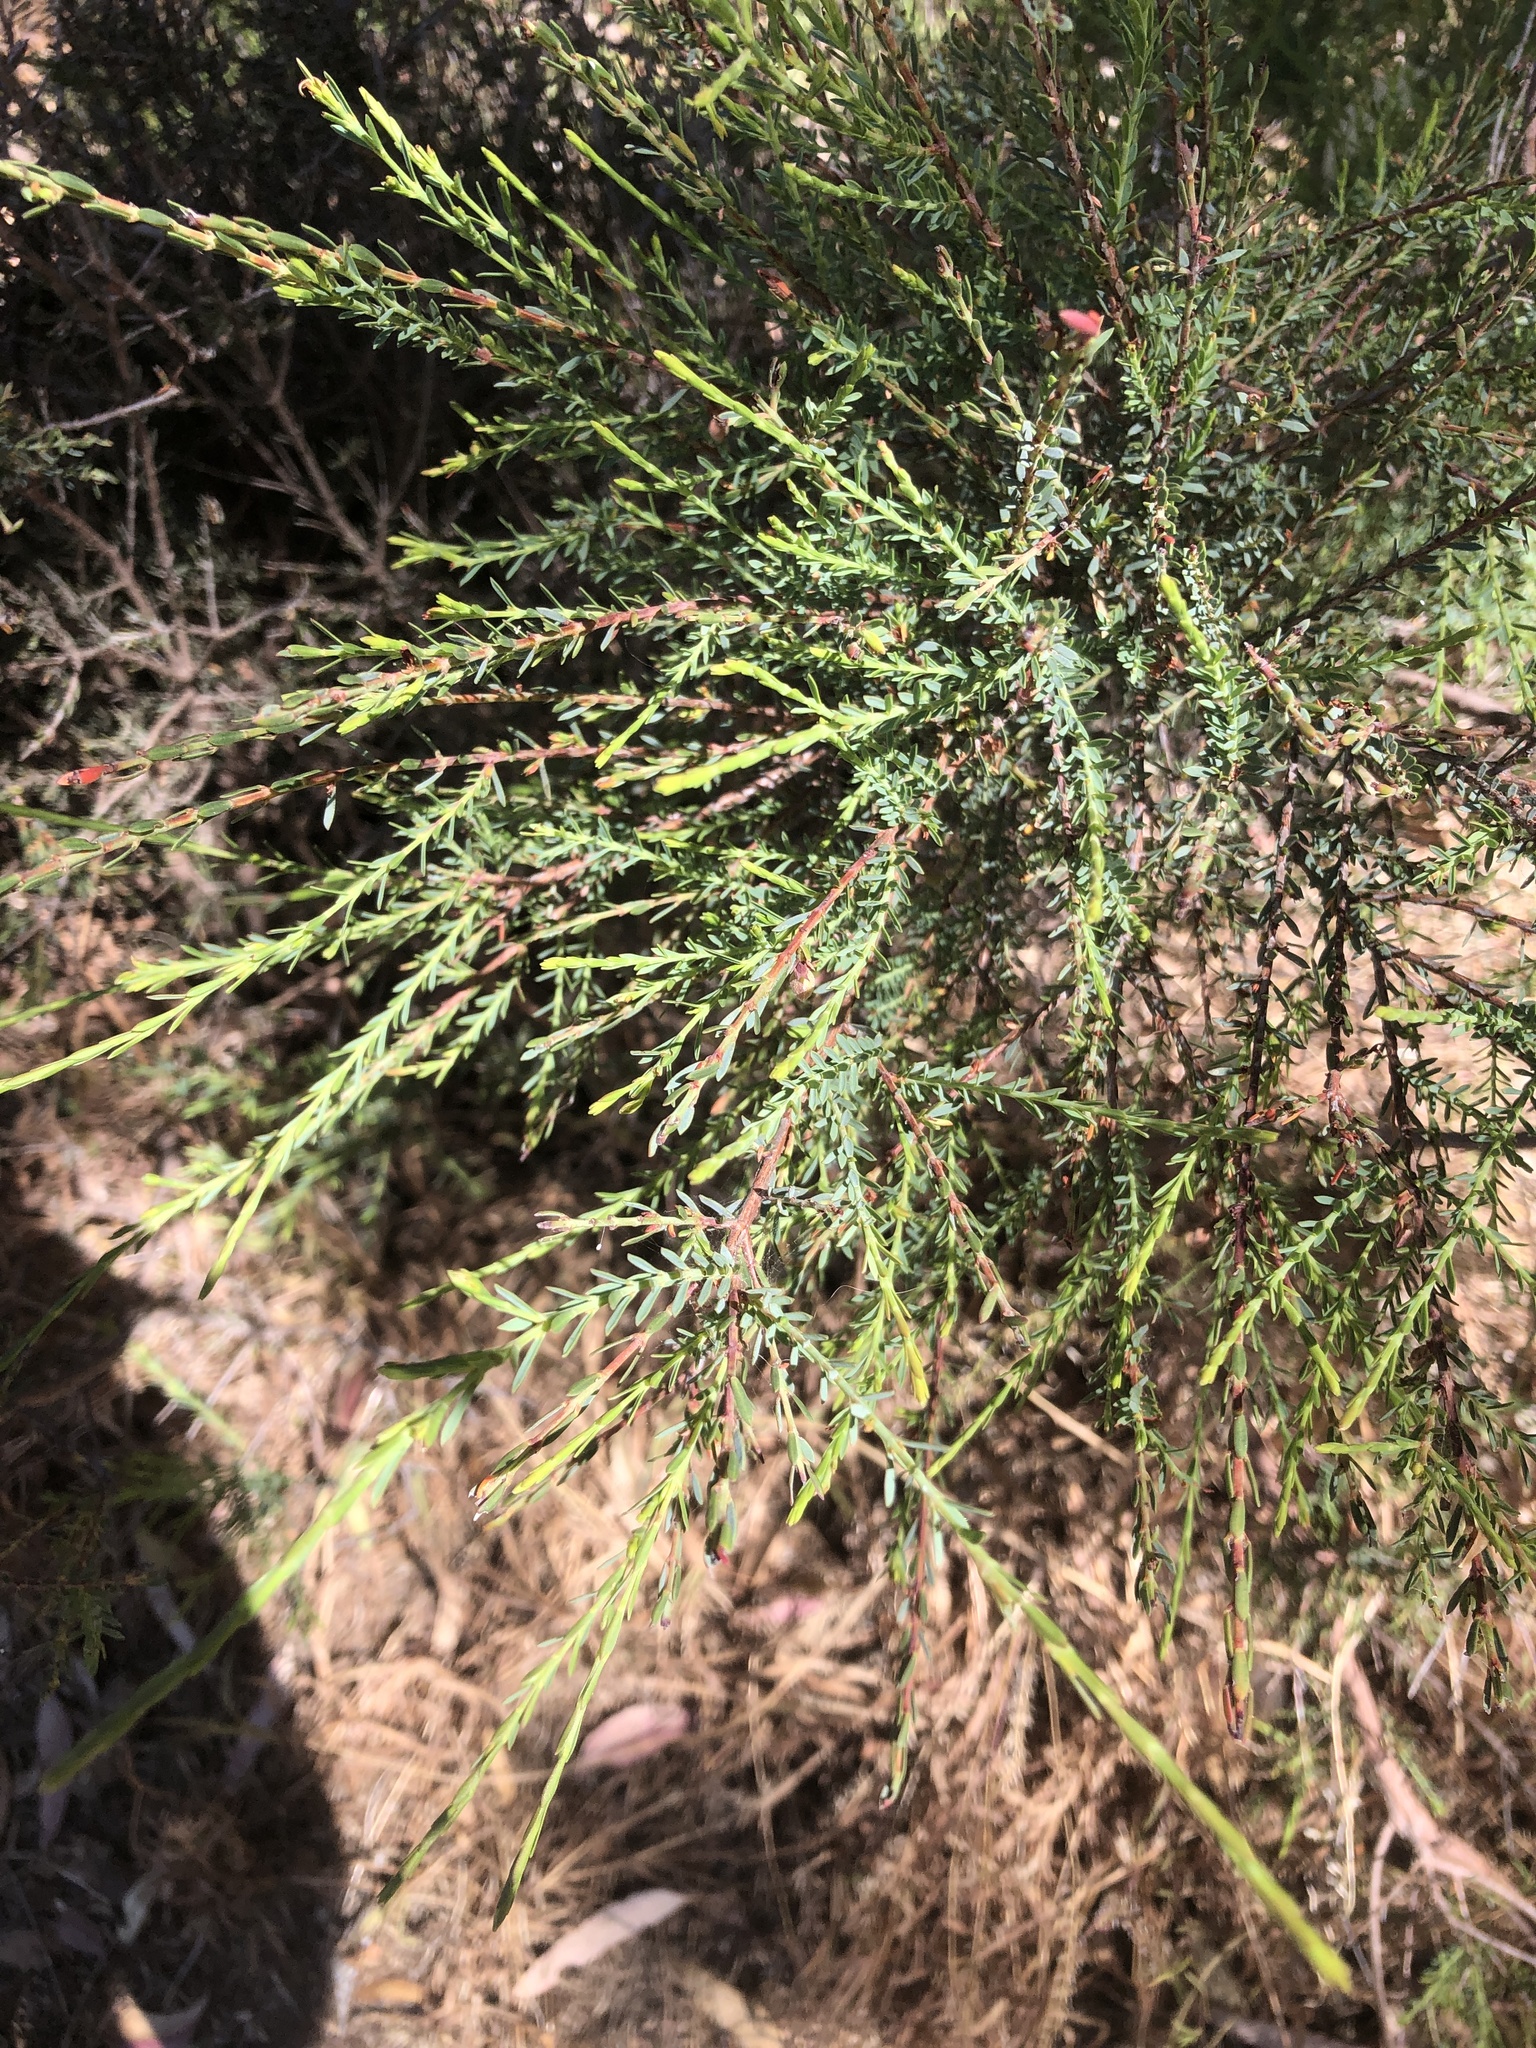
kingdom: Plantae
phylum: Tracheophyta
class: Magnoliopsida
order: Fabales
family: Fabaceae
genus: Eutaxia
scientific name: Eutaxia microphylla
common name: Mallee bush-pea
